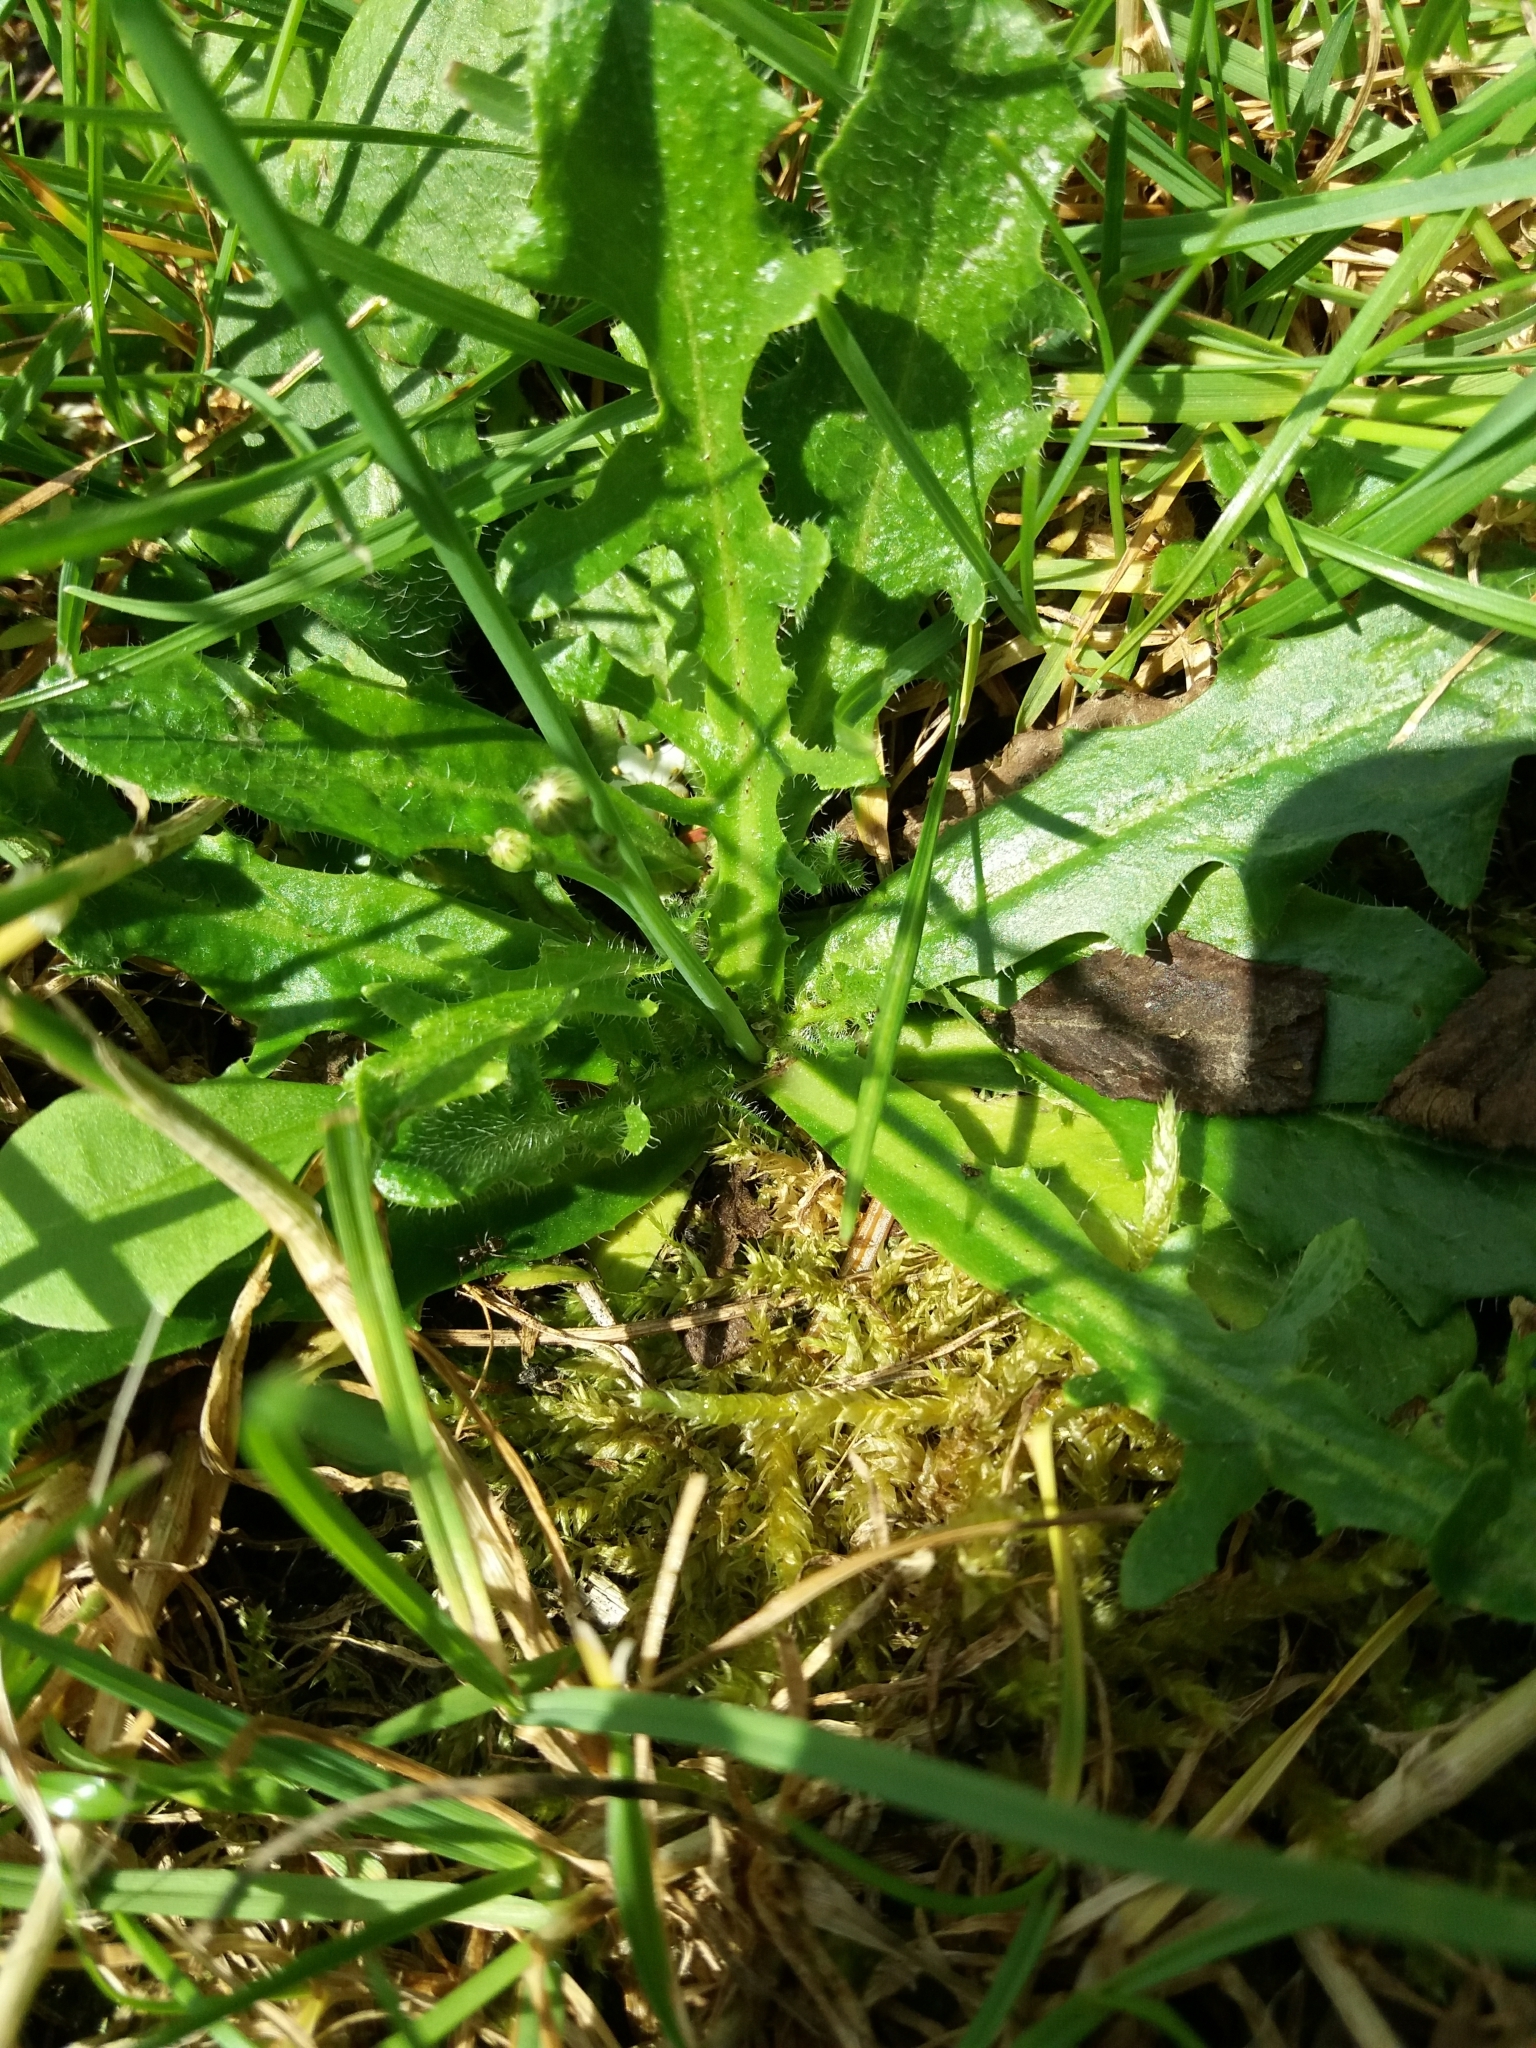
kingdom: Plantae
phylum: Tracheophyta
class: Magnoliopsida
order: Asterales
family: Asteraceae
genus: Hypochaeris
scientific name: Hypochaeris radicata
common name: Flatweed
